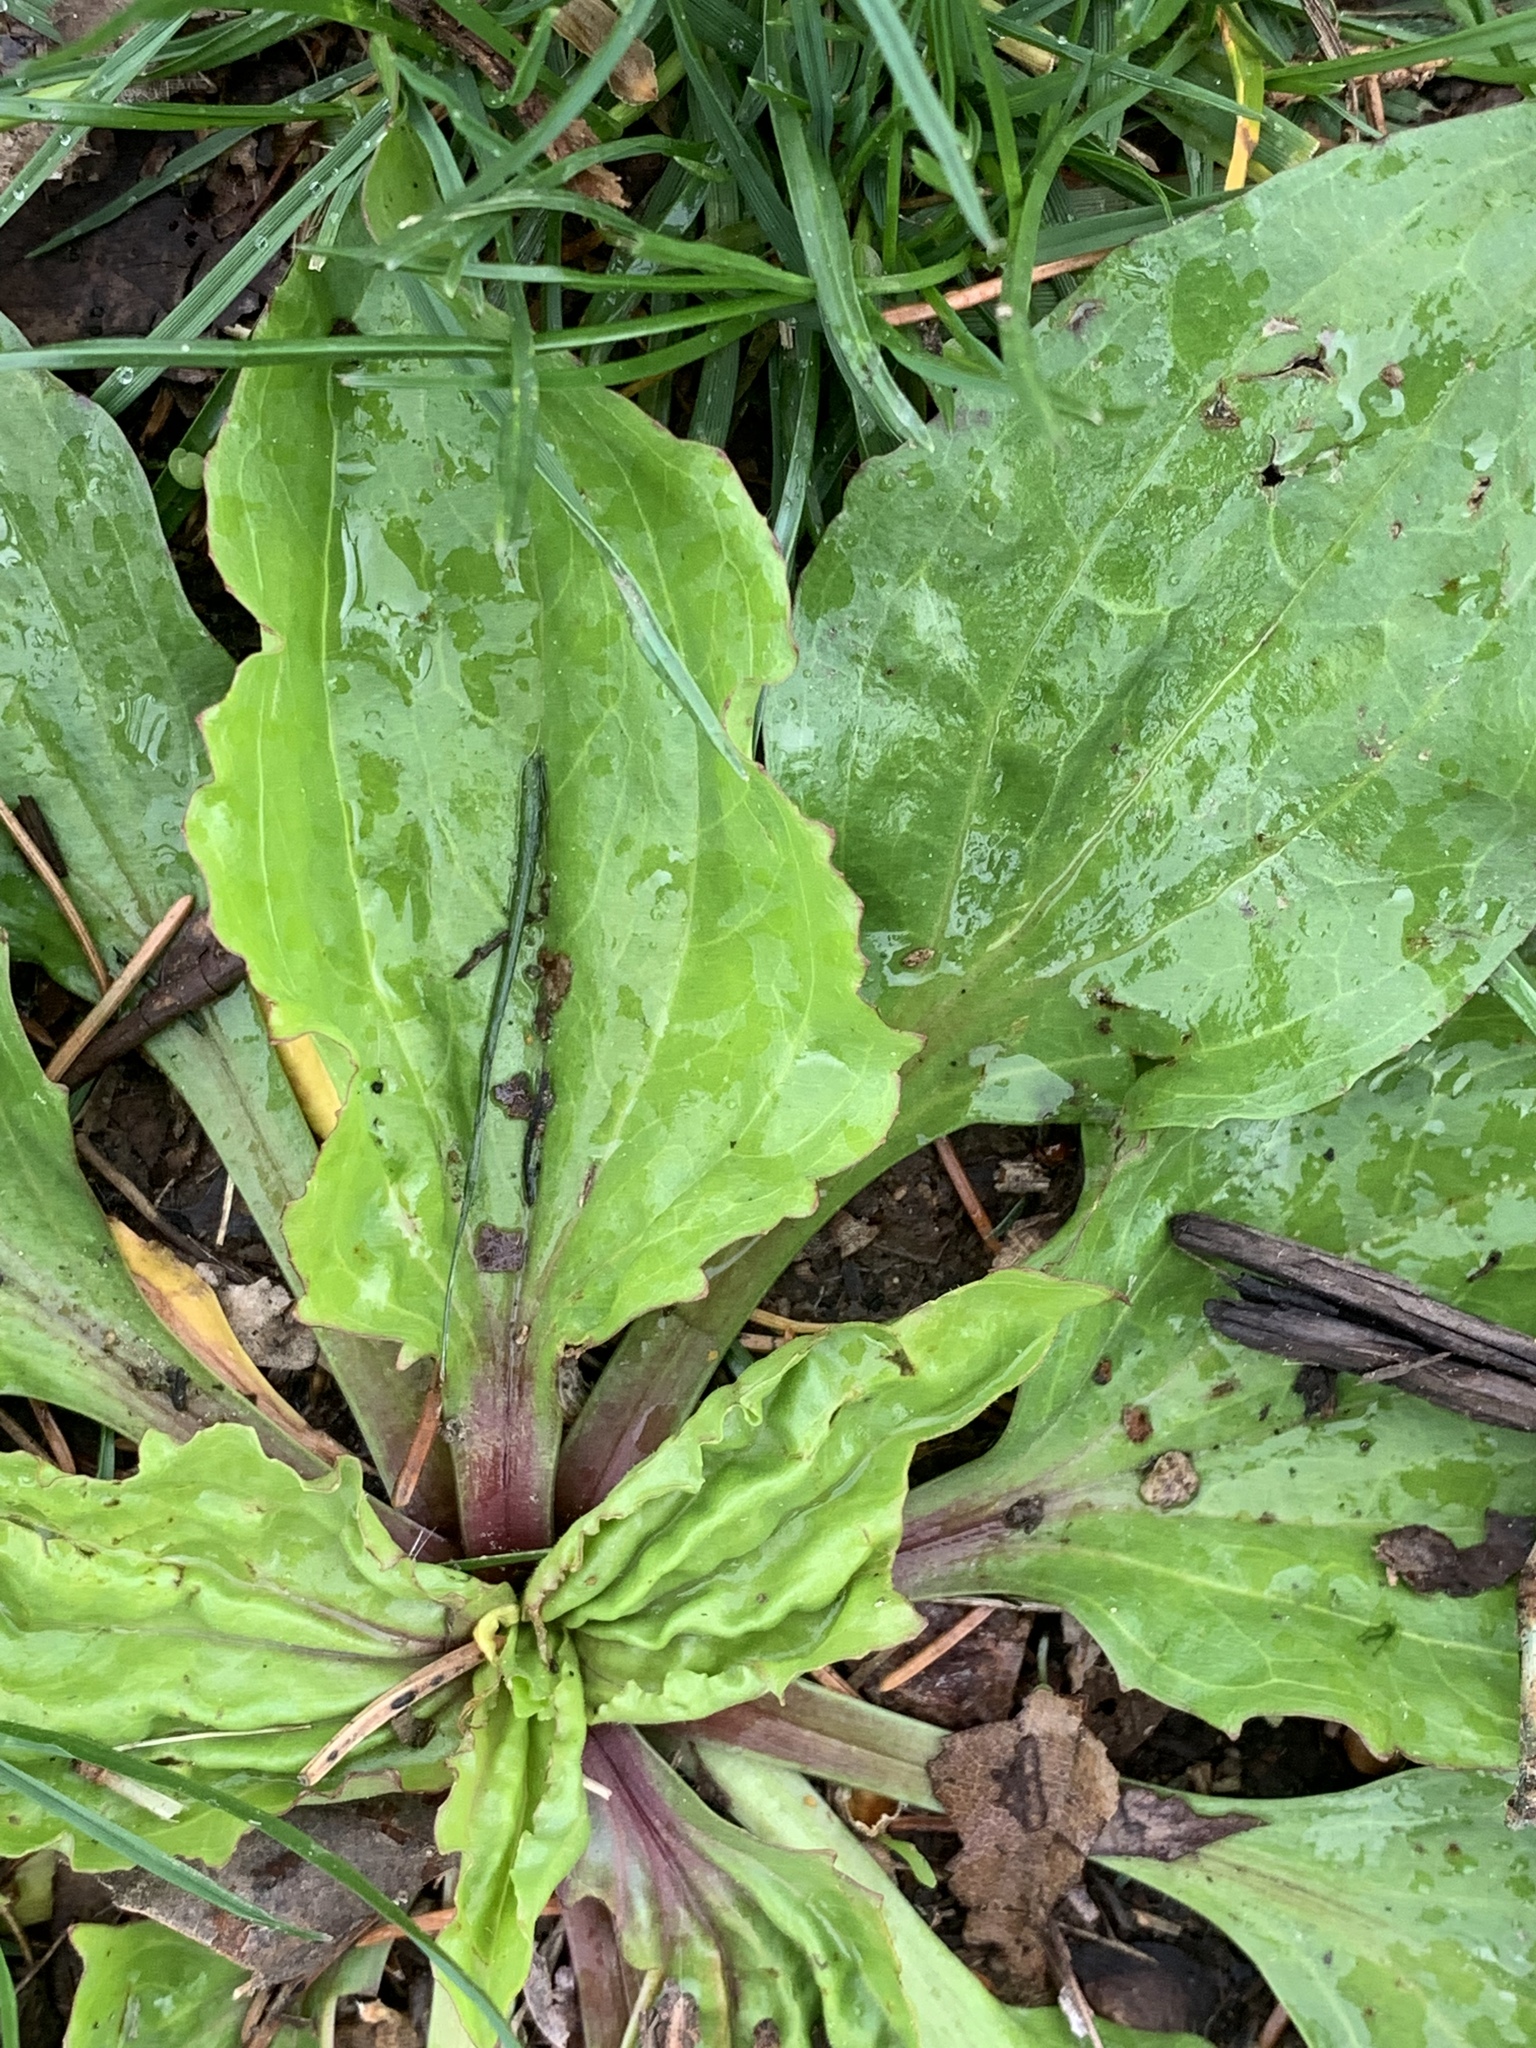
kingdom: Plantae
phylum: Tracheophyta
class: Magnoliopsida
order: Lamiales
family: Plantaginaceae
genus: Plantago
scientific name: Plantago rugelii
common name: American plantain
